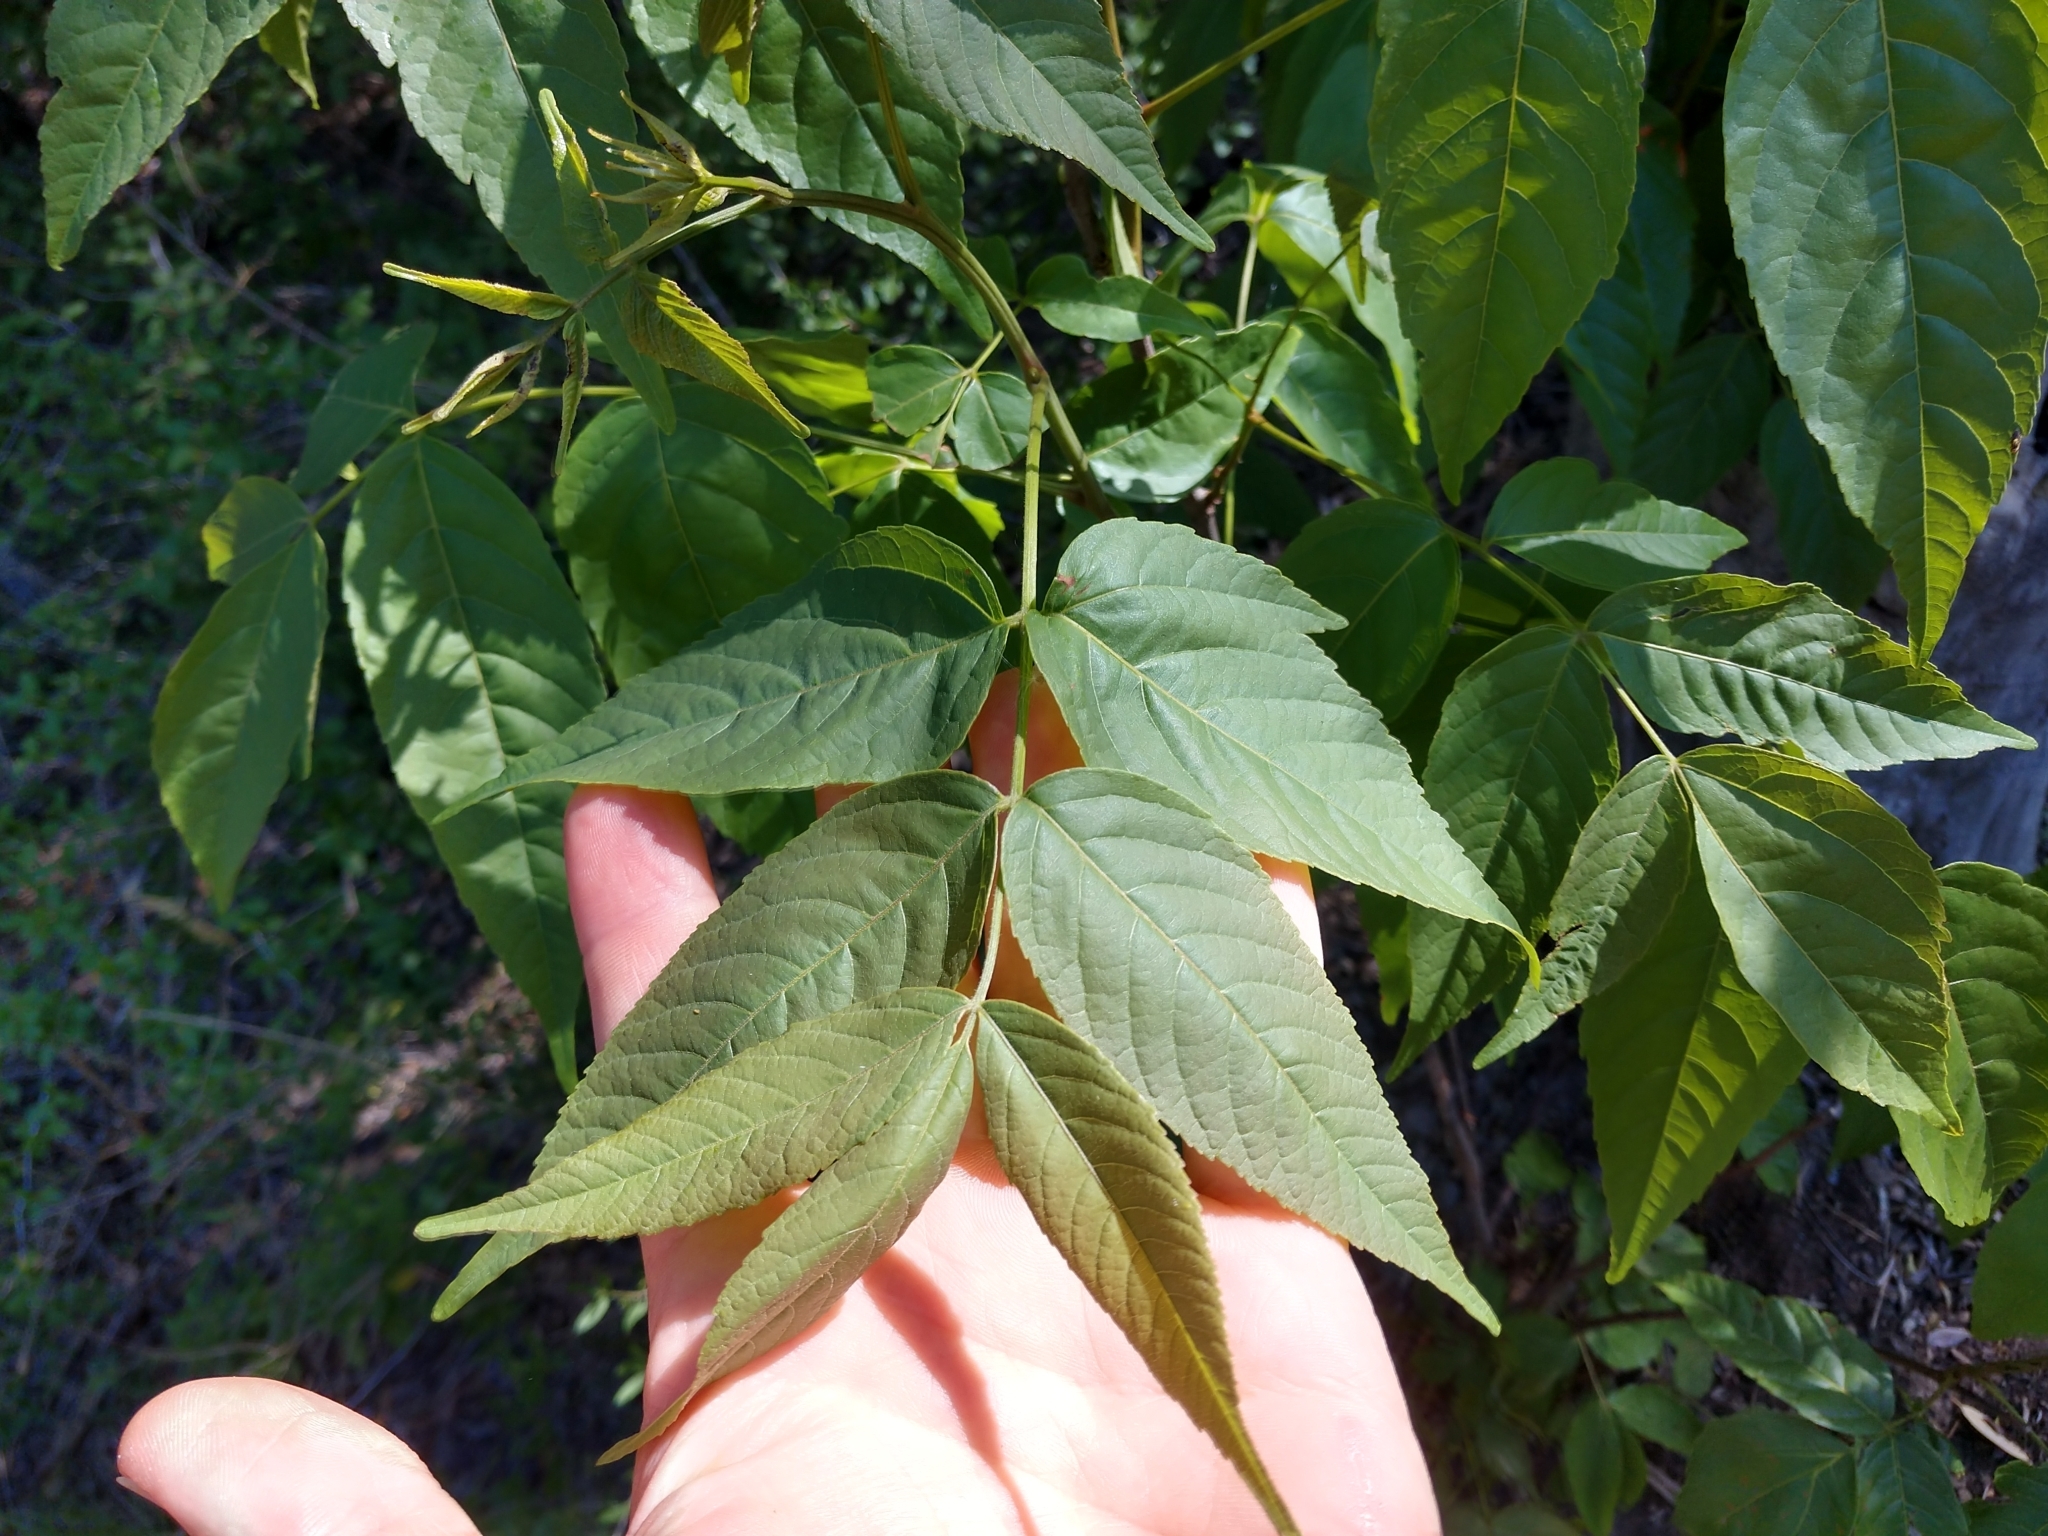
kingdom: Plantae
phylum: Tracheophyta
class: Magnoliopsida
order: Sapindales
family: Sapindaceae
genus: Ungnadia
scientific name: Ungnadia speciosa
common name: Texas-buckeye
